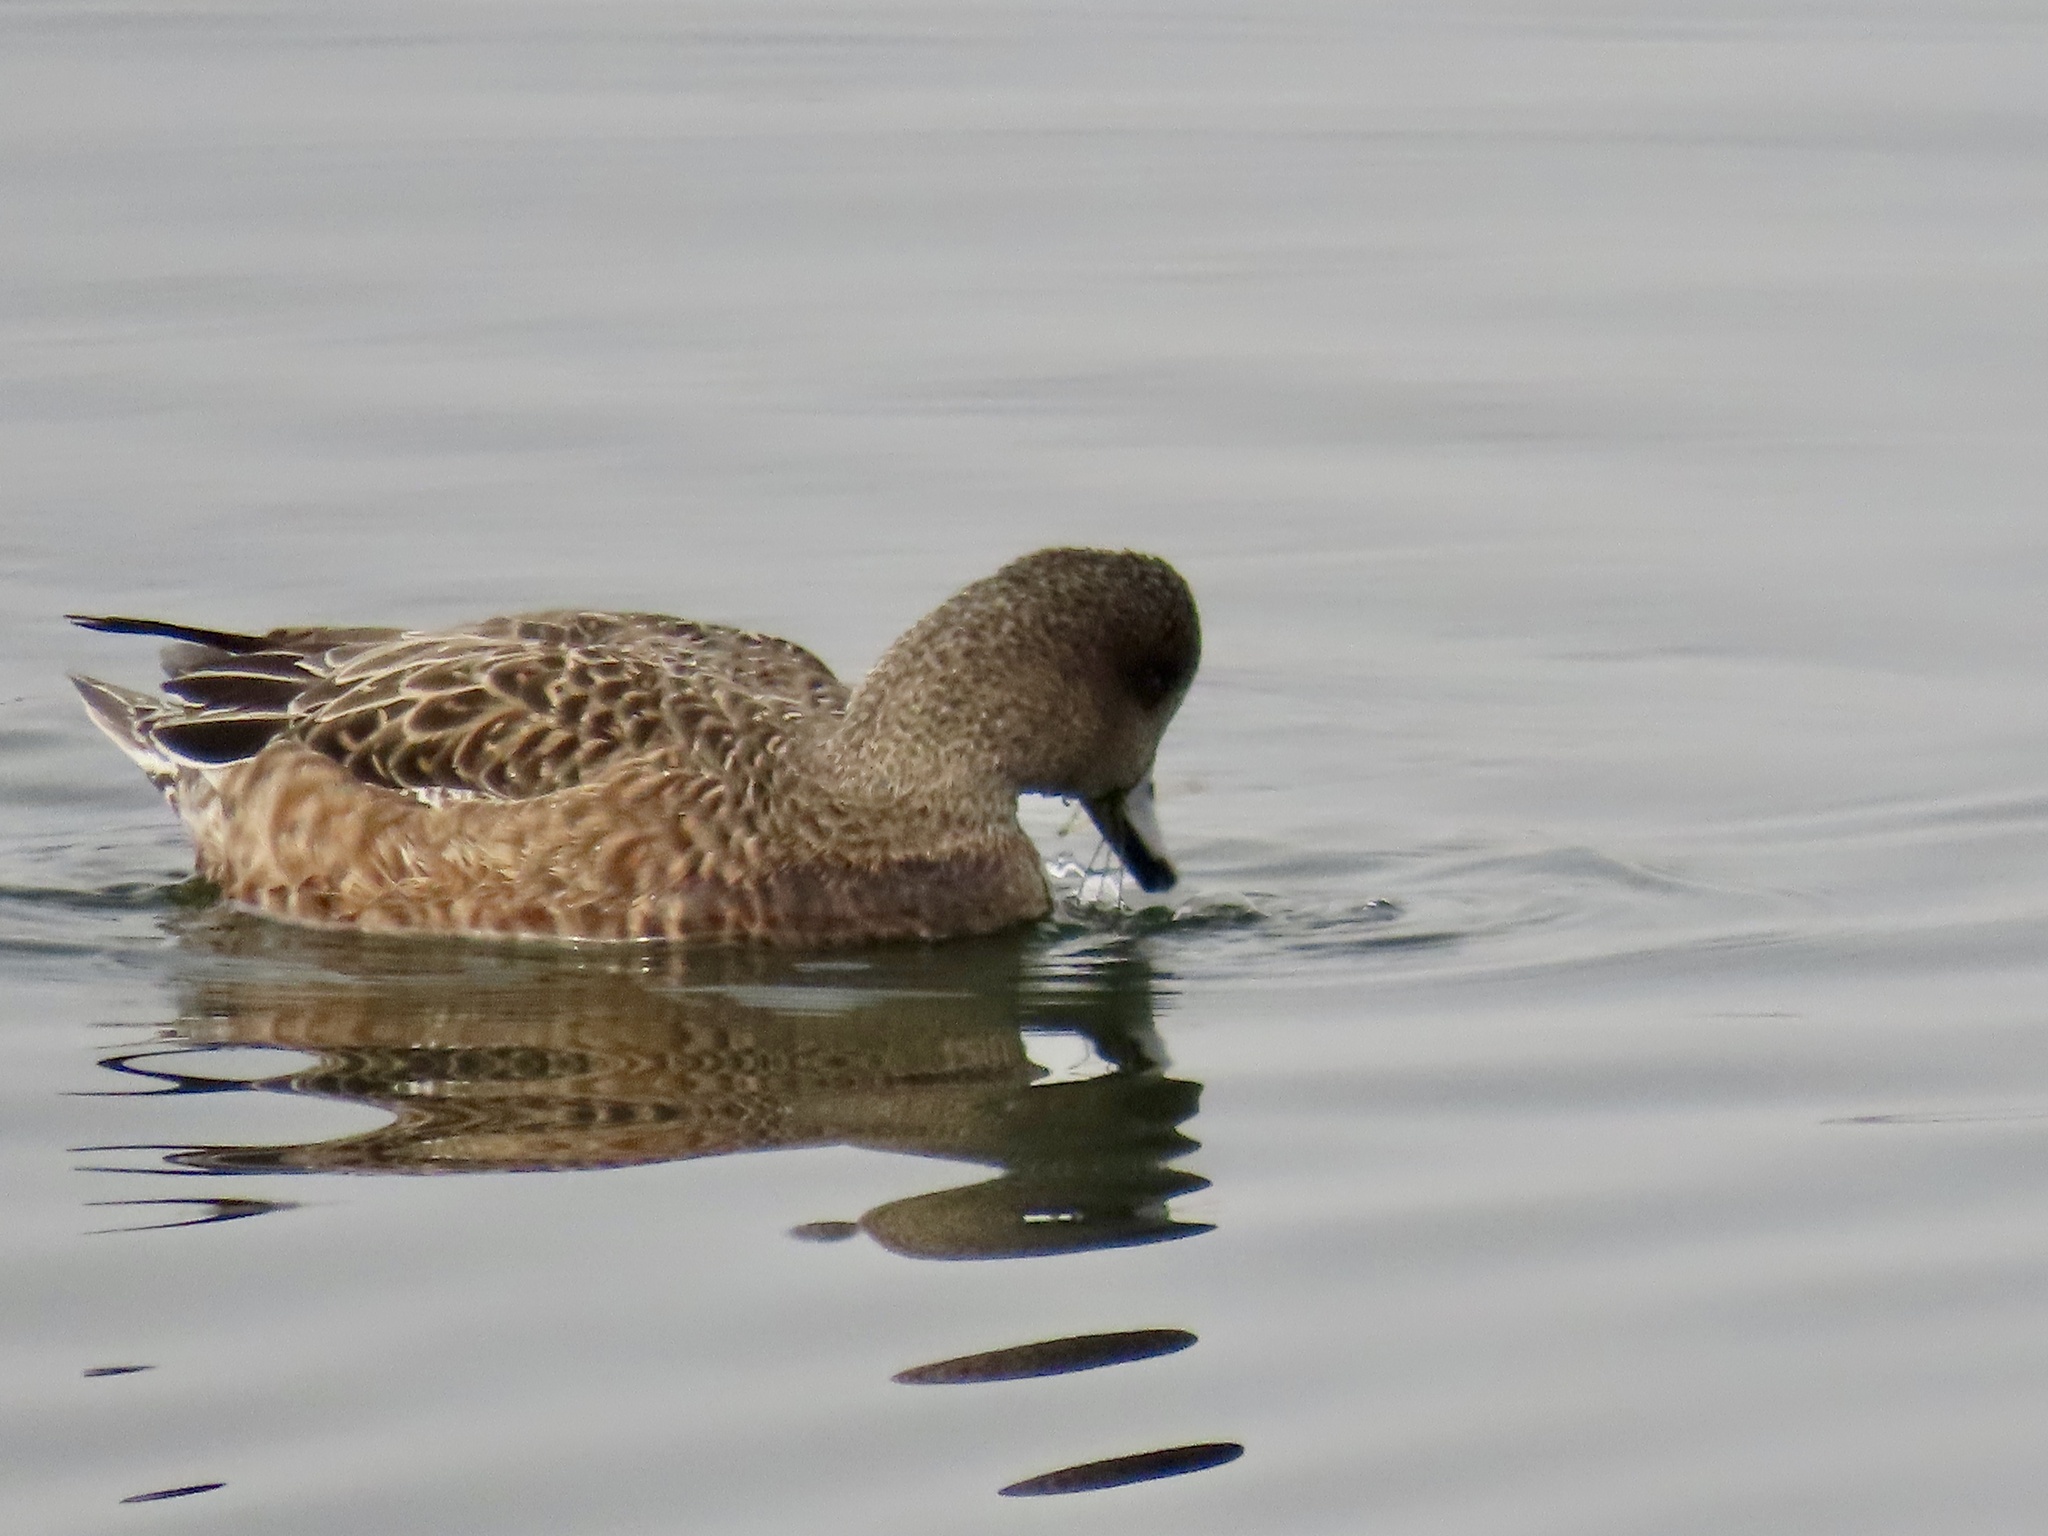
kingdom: Animalia
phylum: Chordata
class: Aves
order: Anseriformes
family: Anatidae
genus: Mareca
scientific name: Mareca americana
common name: American wigeon
